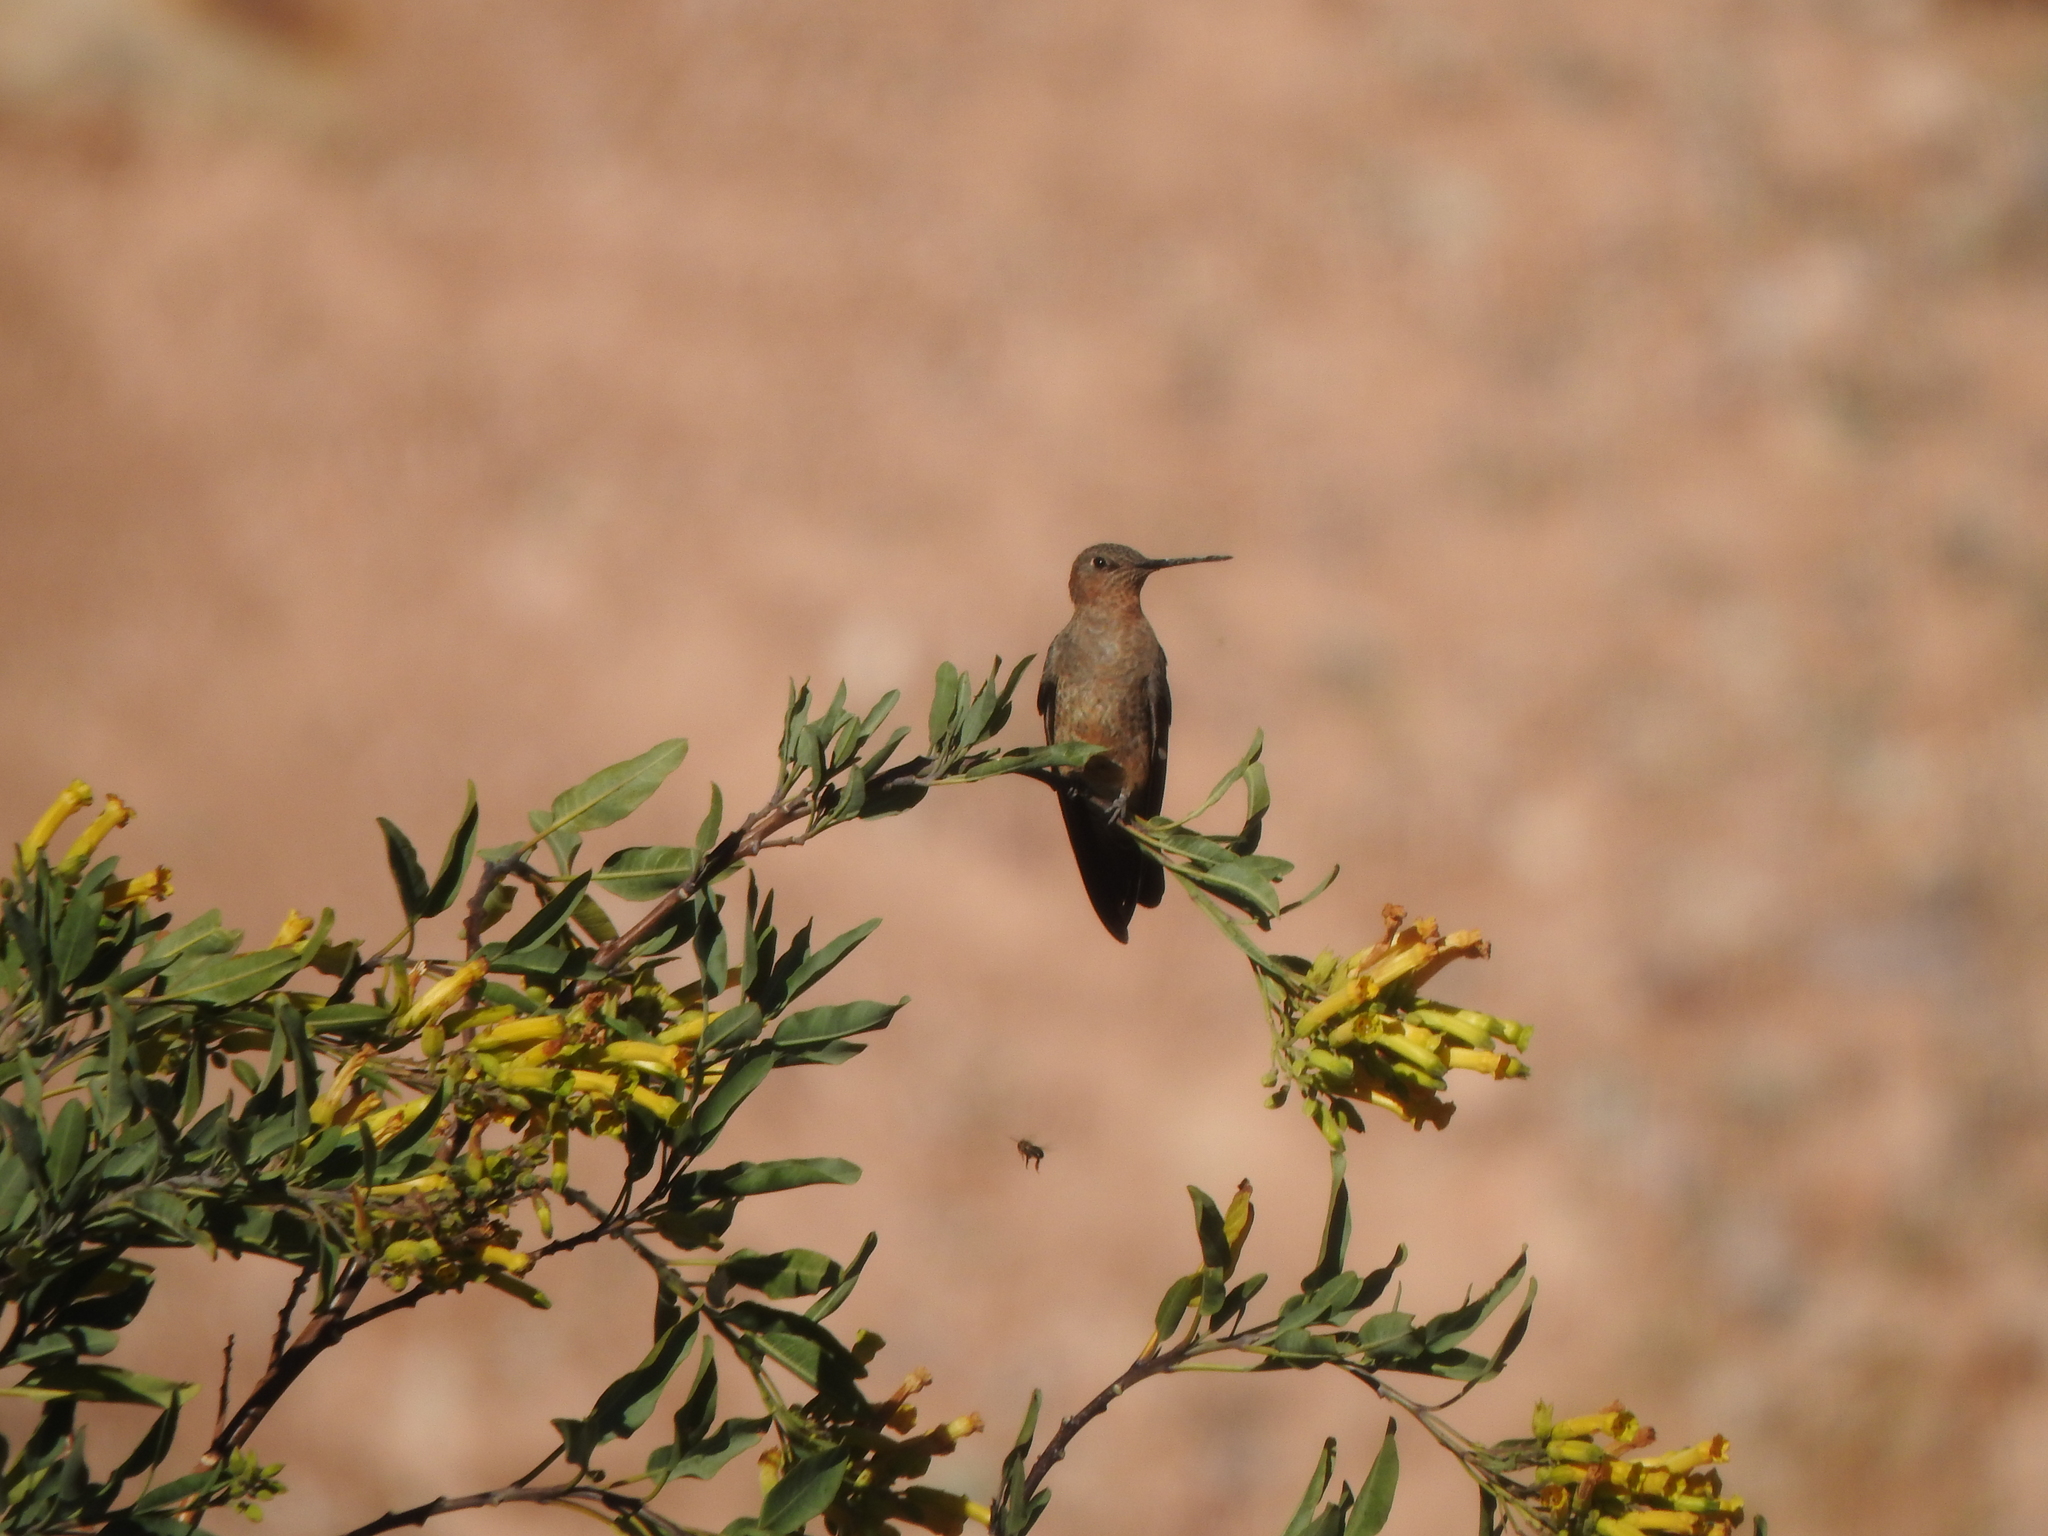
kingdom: Animalia
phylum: Chordata
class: Aves
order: Apodiformes
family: Trochilidae
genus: Patagona
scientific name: Patagona gigas
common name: Giant hummingbird
